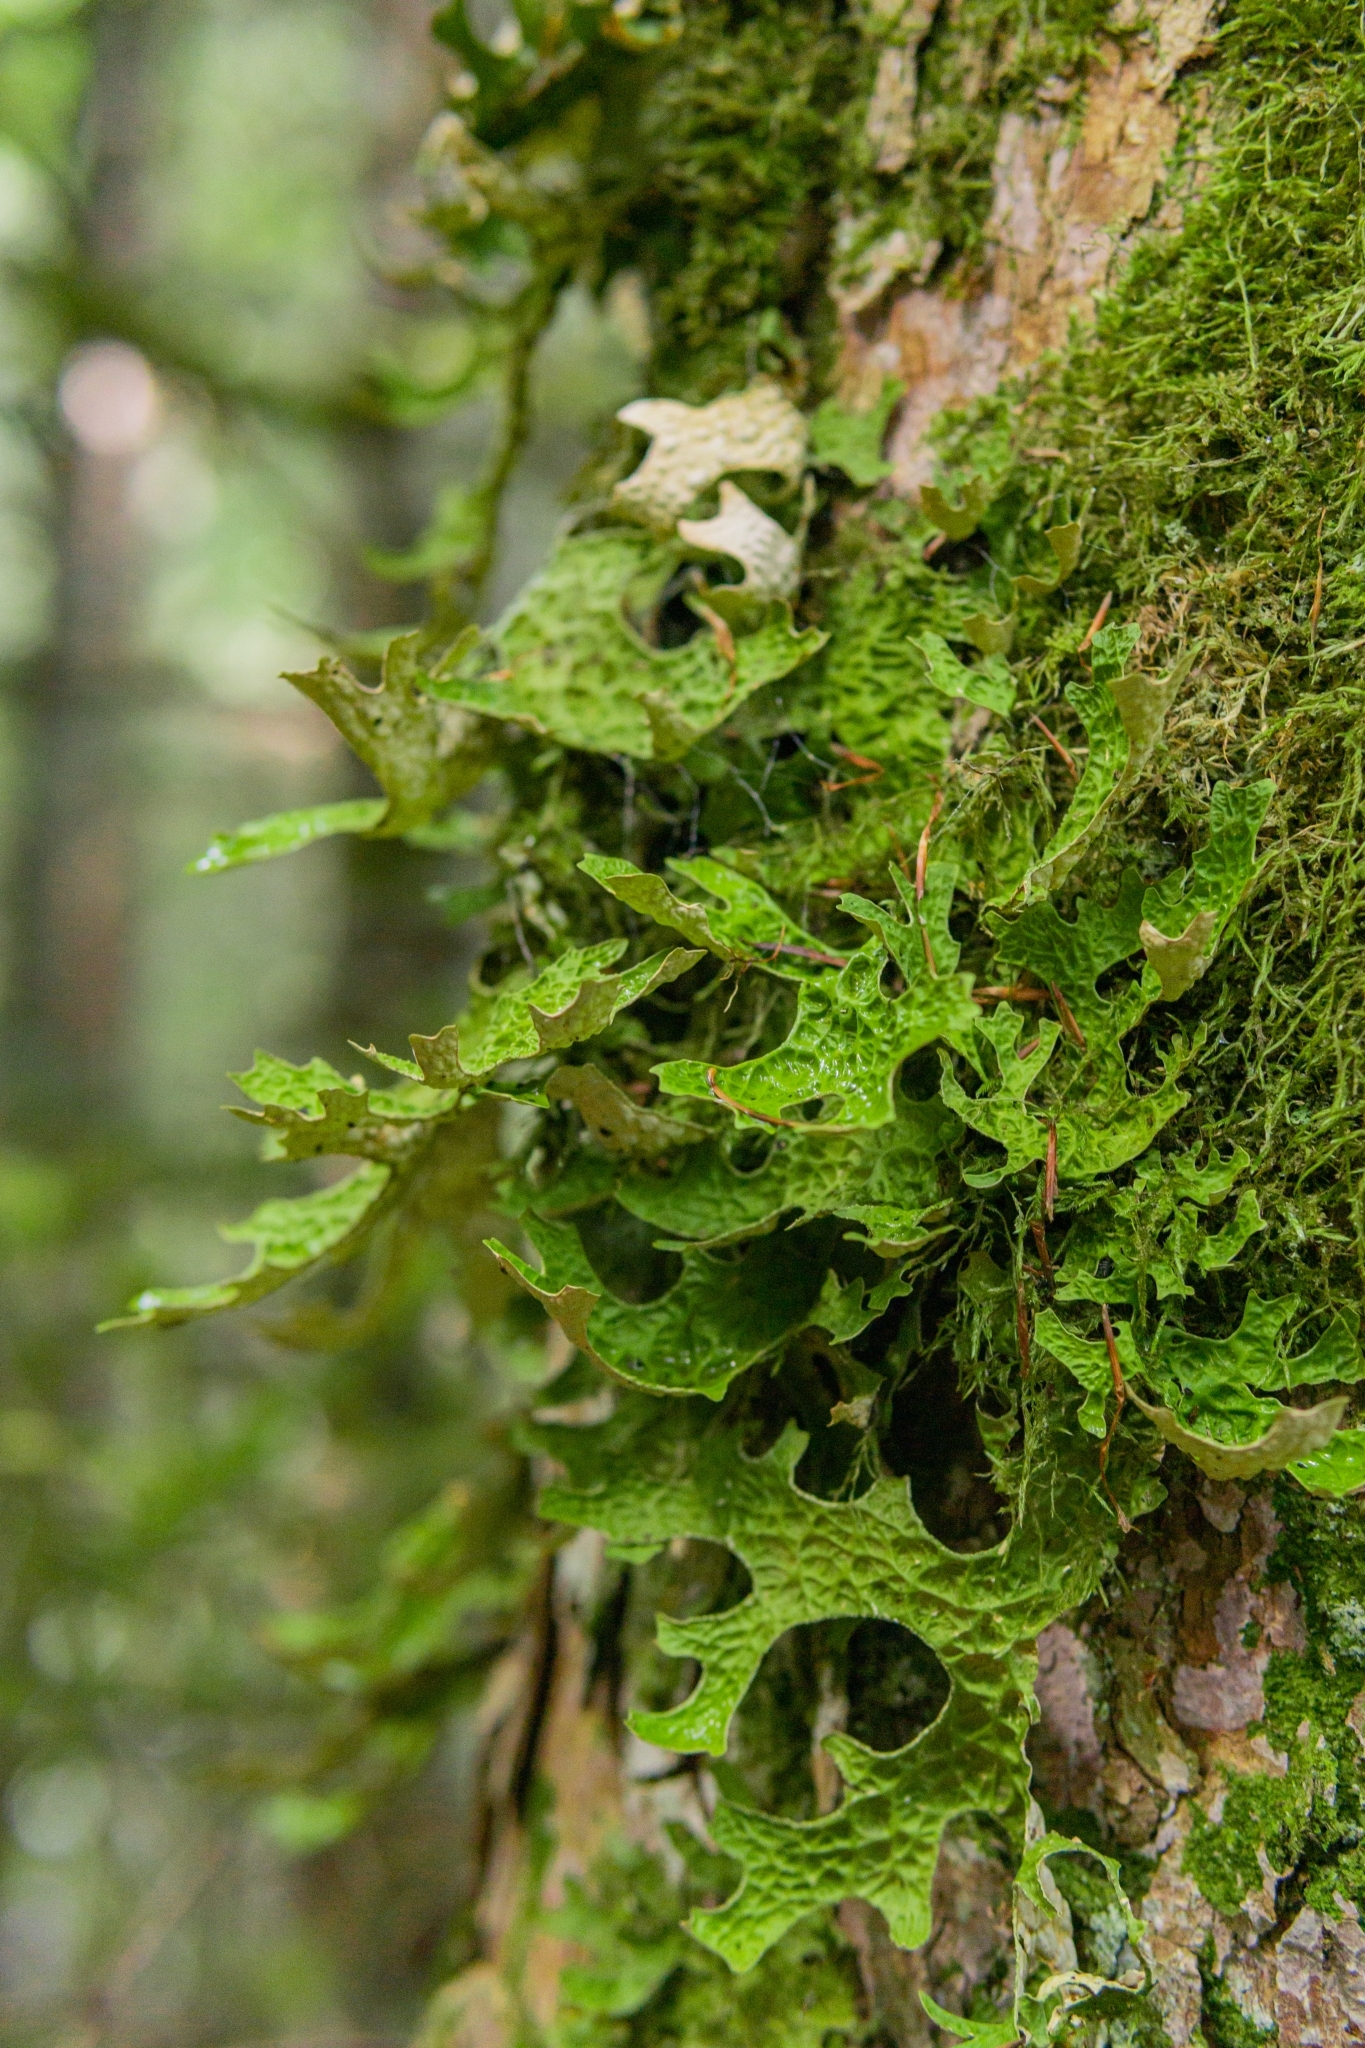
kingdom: Fungi
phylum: Ascomycota
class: Lecanoromycetes
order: Peltigerales
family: Lobariaceae
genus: Lobaria
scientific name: Lobaria pulmonaria
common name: Lungwort
